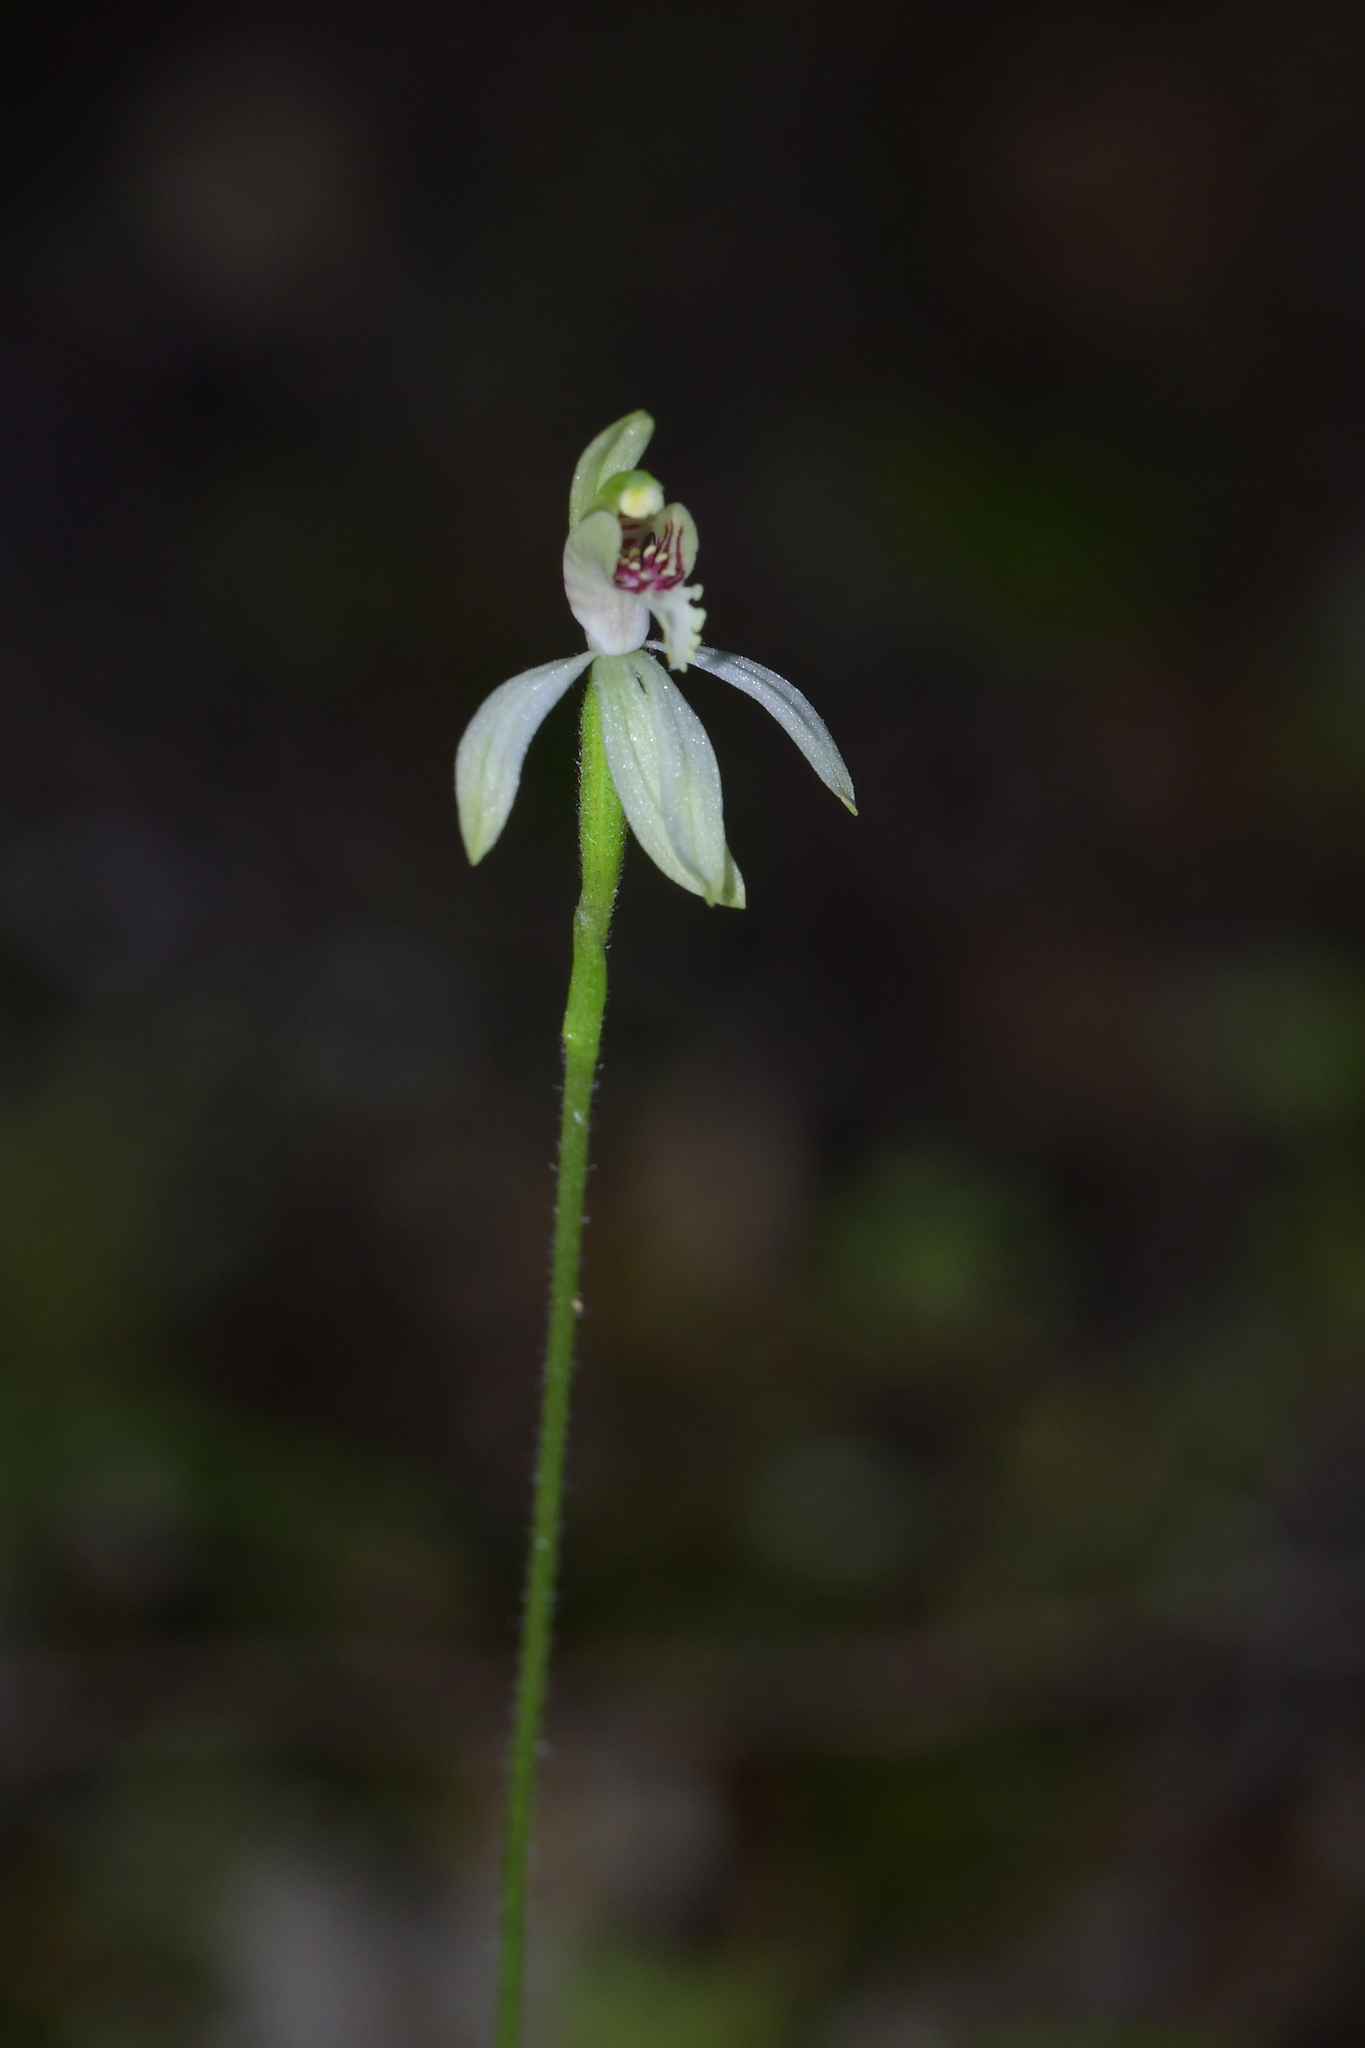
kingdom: Plantae
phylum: Tracheophyta
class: Liliopsida
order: Asparagales
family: Orchidaceae
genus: Caladenia
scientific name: Caladenia chlorostyla
